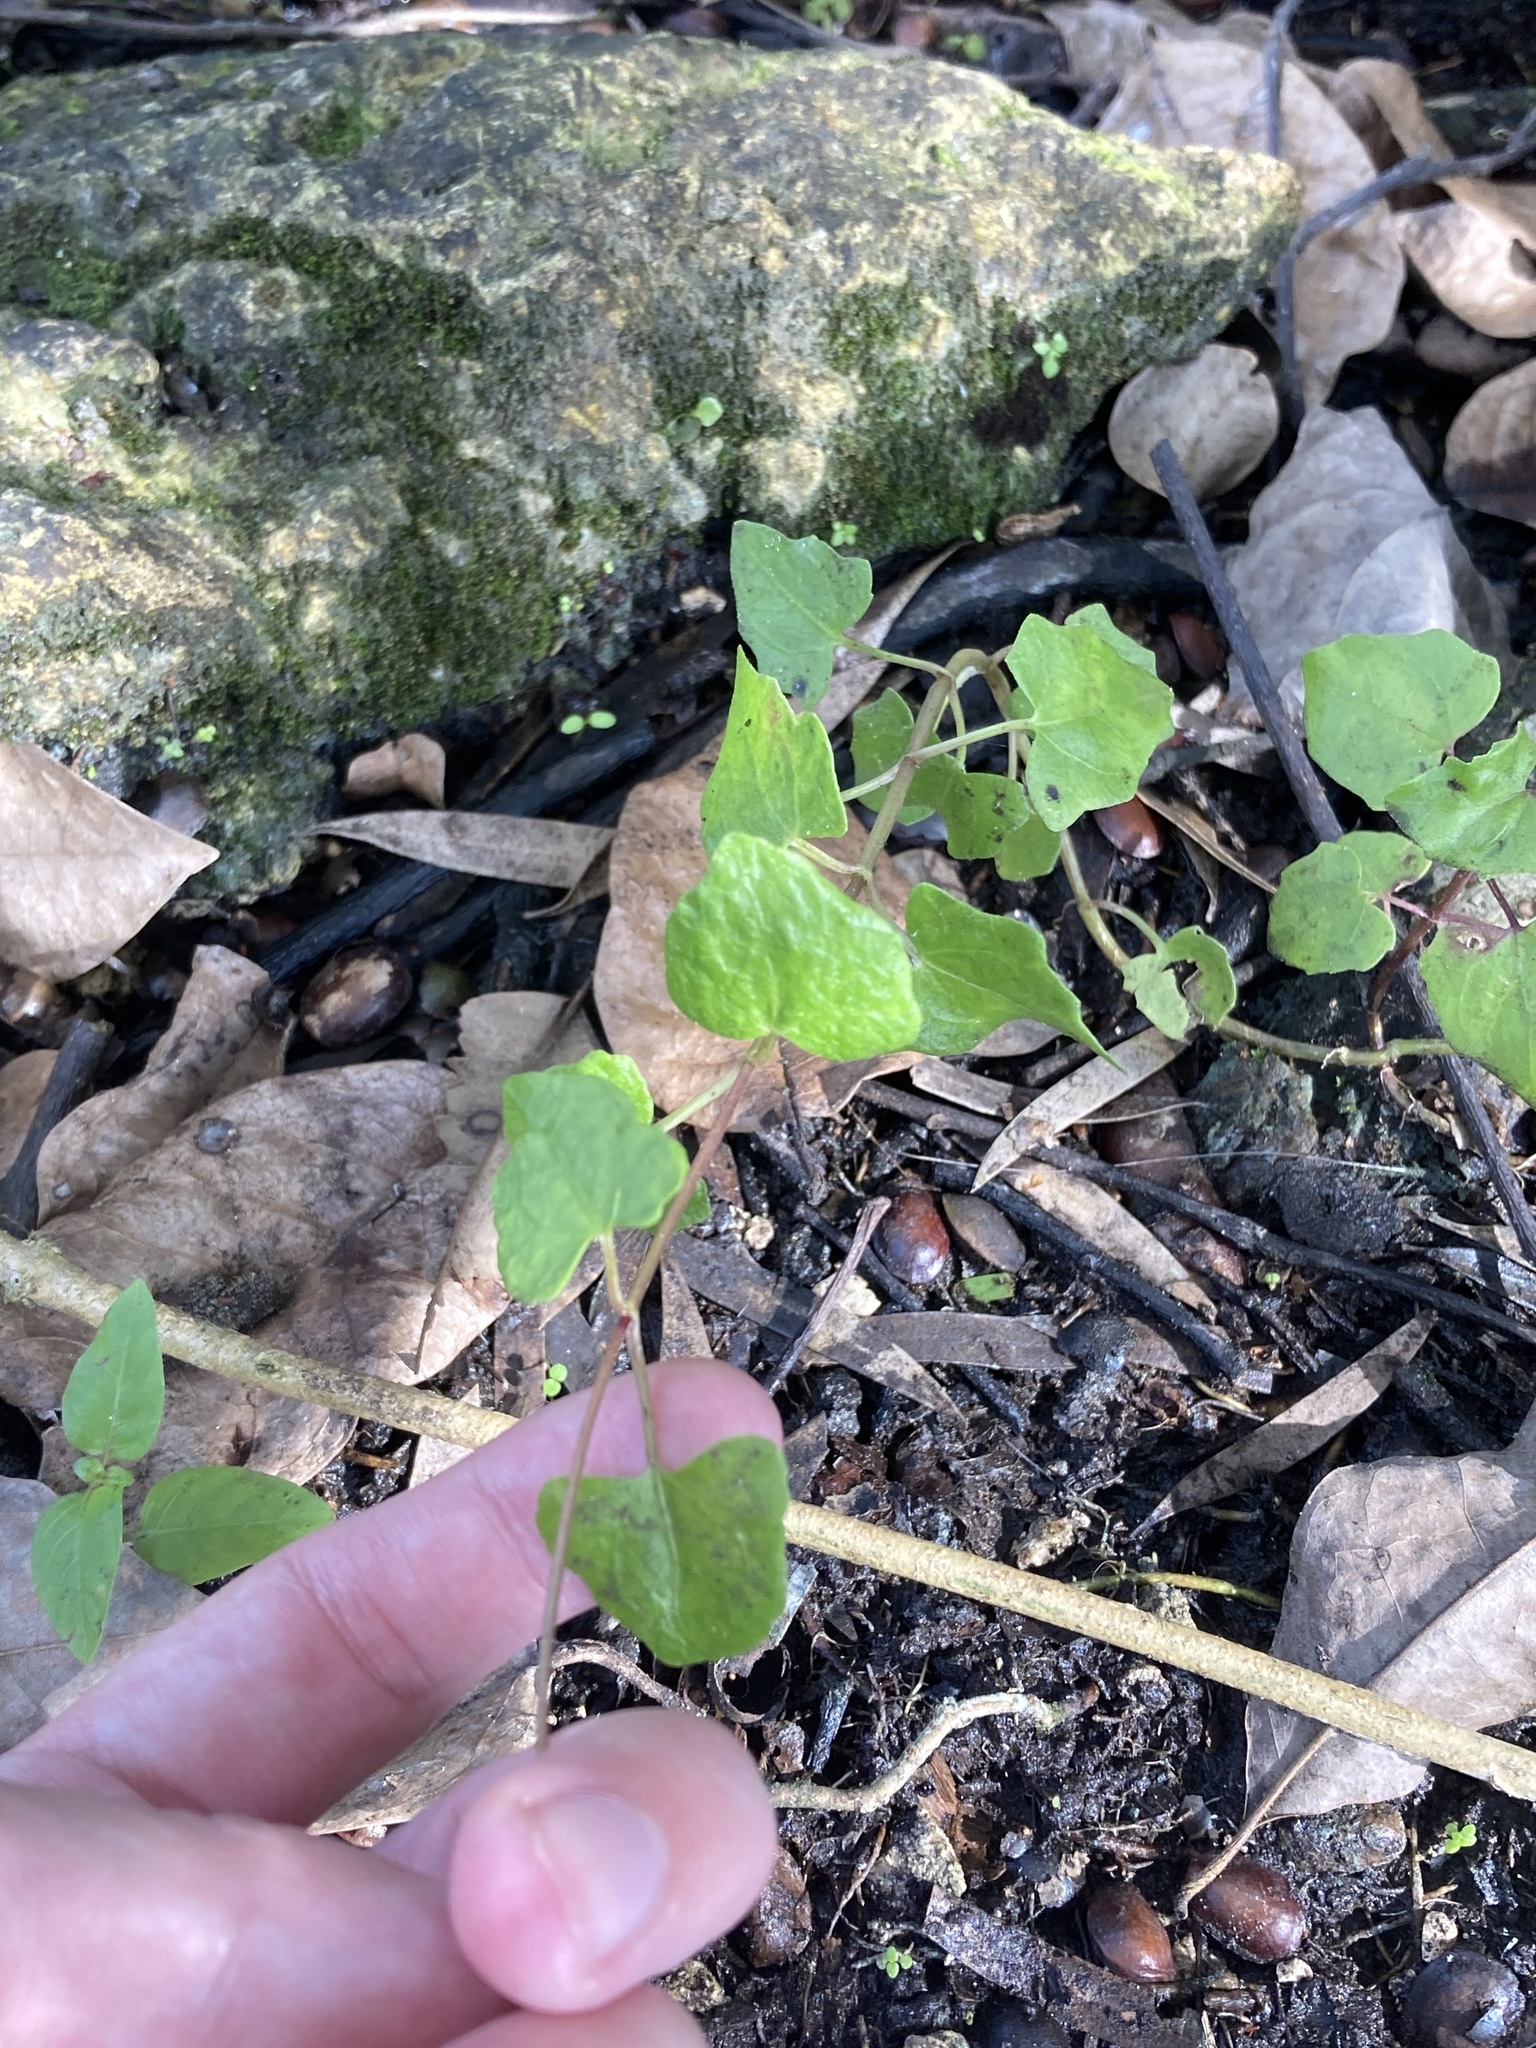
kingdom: Plantae
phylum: Tracheophyta
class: Magnoliopsida
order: Asterales
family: Asteraceae
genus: Mikania
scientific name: Mikania scandens
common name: Climbing hempvine
